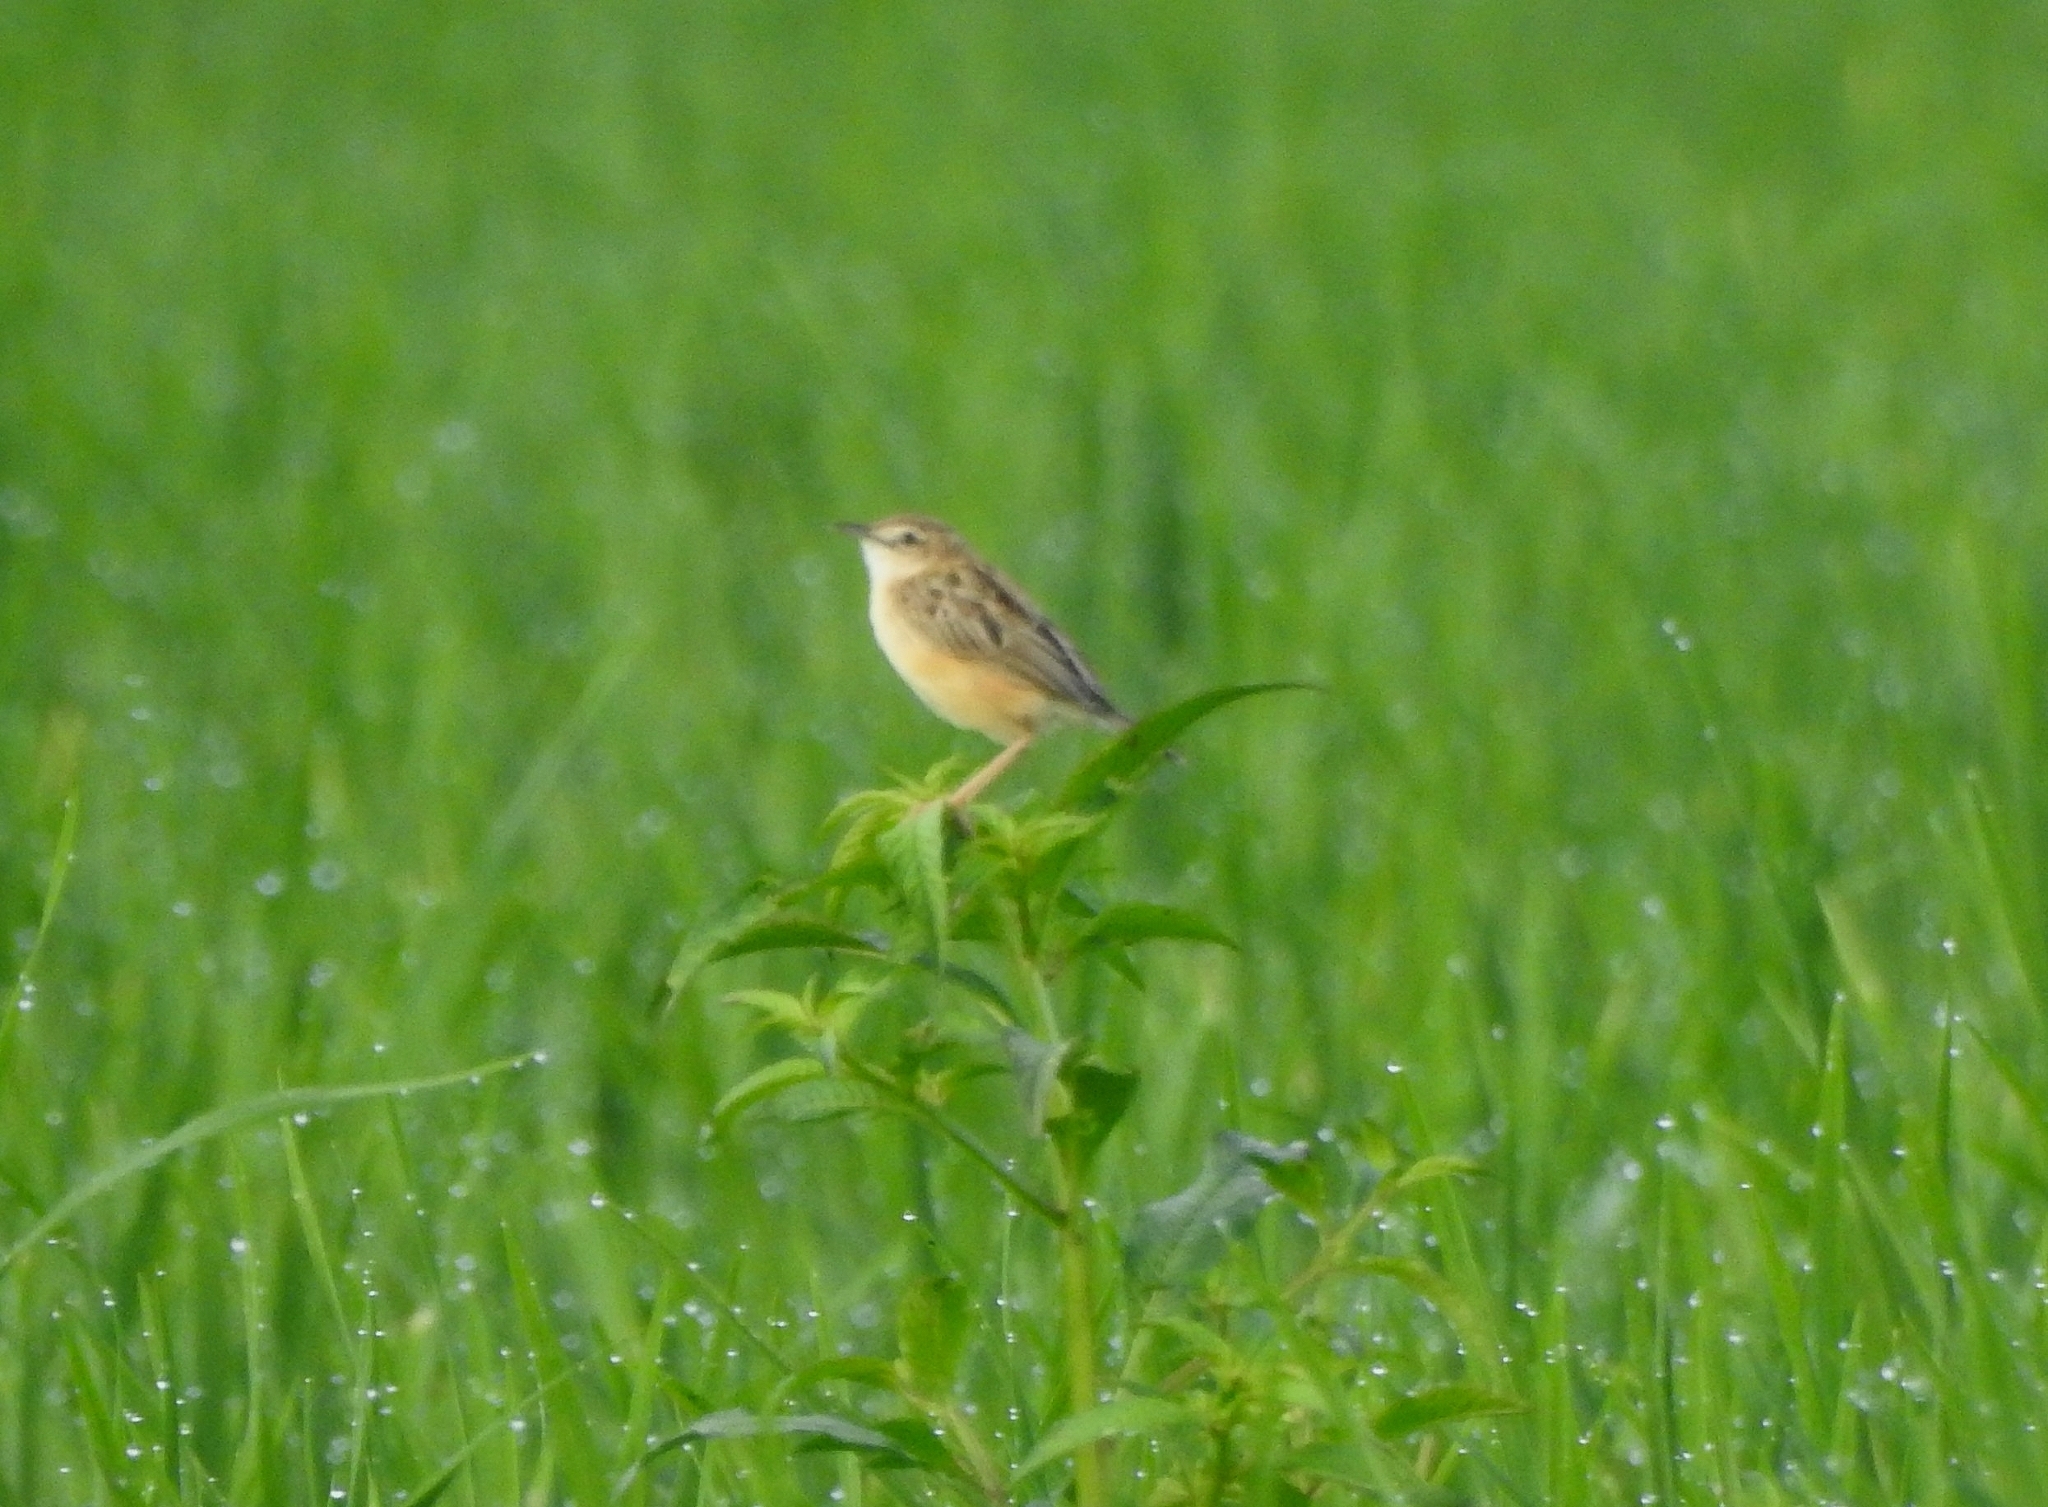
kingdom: Animalia
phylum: Chordata
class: Aves
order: Passeriformes
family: Cisticolidae
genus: Cisticola
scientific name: Cisticola juncidis
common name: Zitting cisticola
